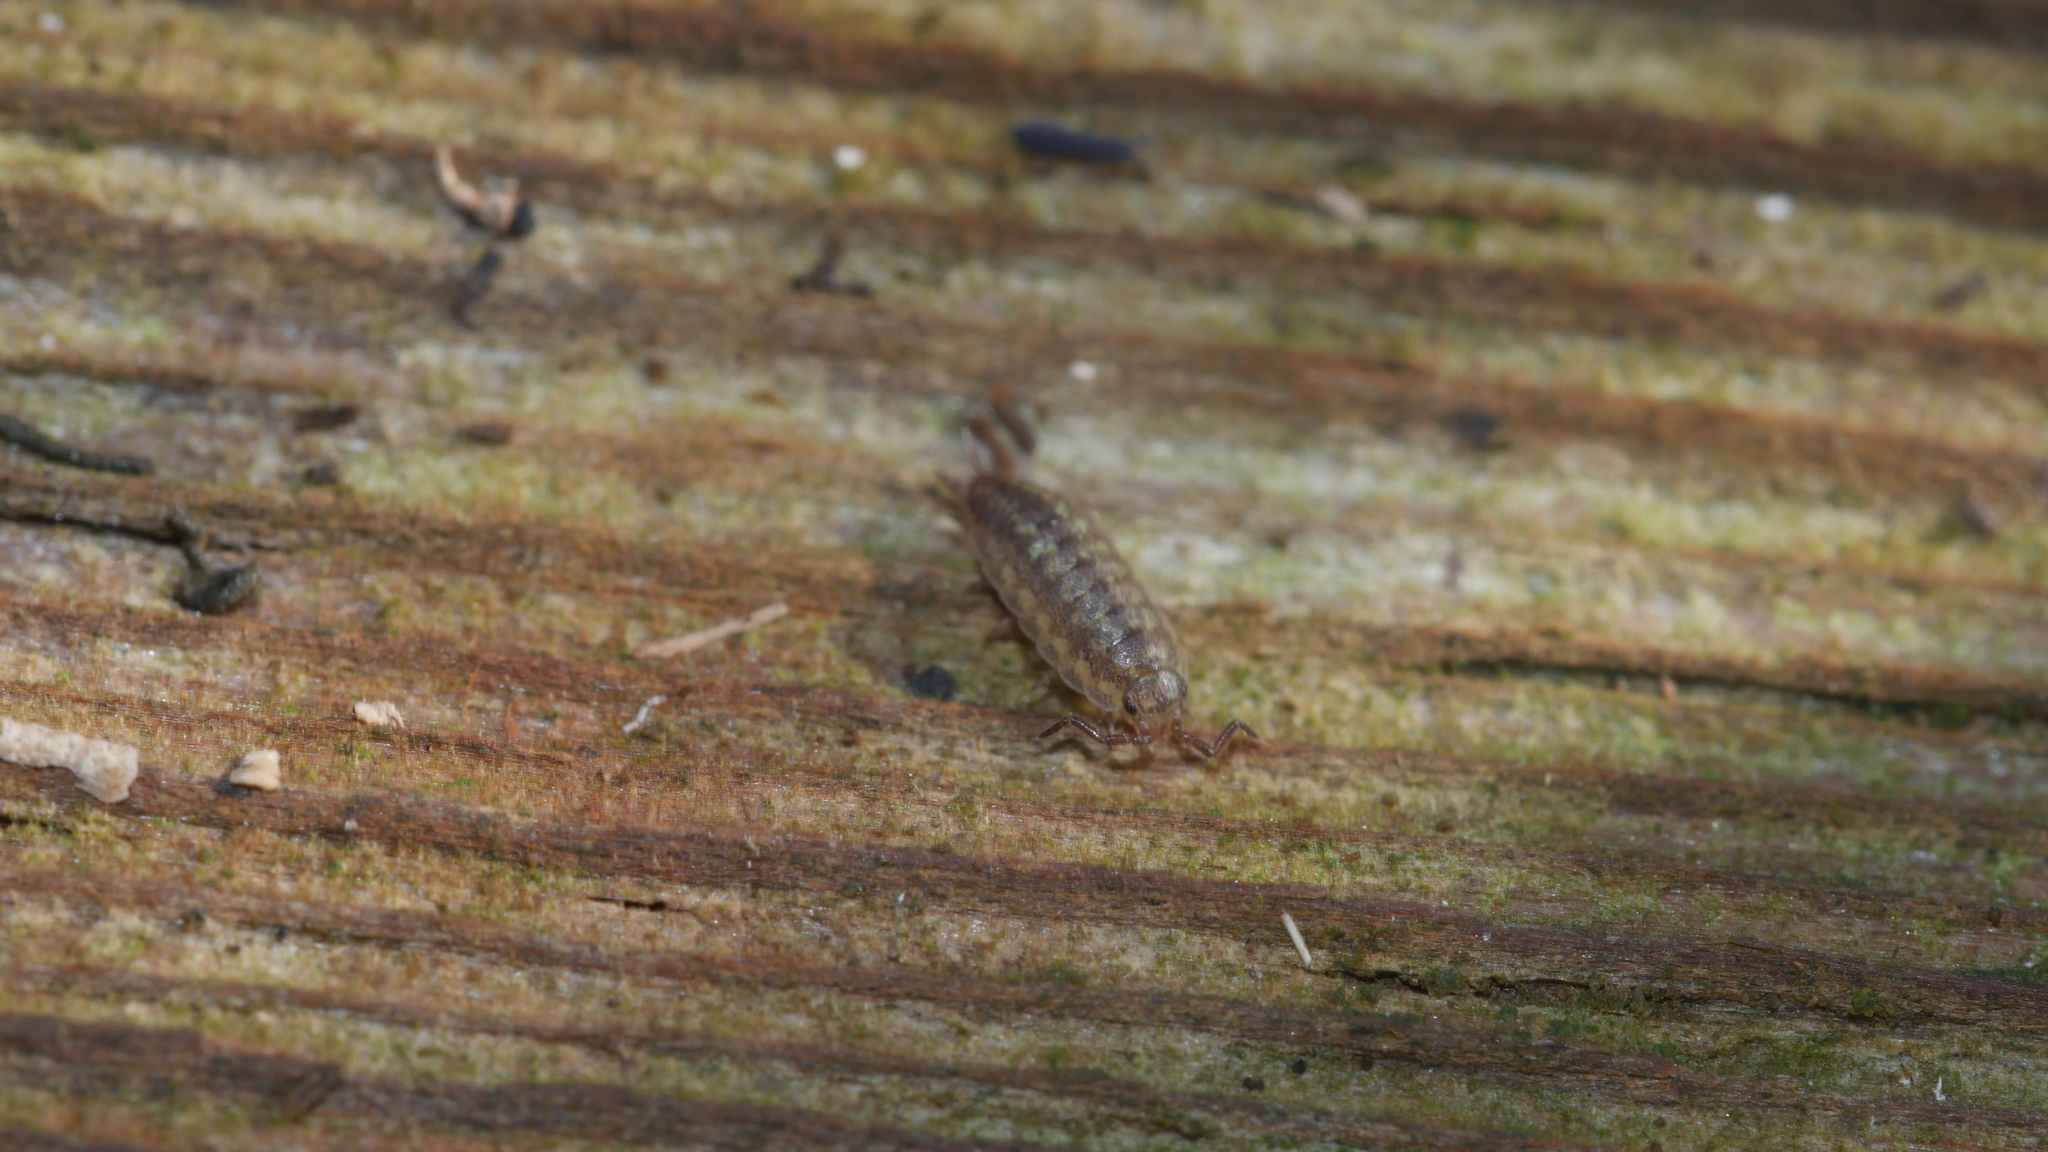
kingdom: Animalia
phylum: Arthropoda
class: Malacostraca
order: Isopoda
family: Halophilosciidae
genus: Littorophiloscia
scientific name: Littorophiloscia vittata
